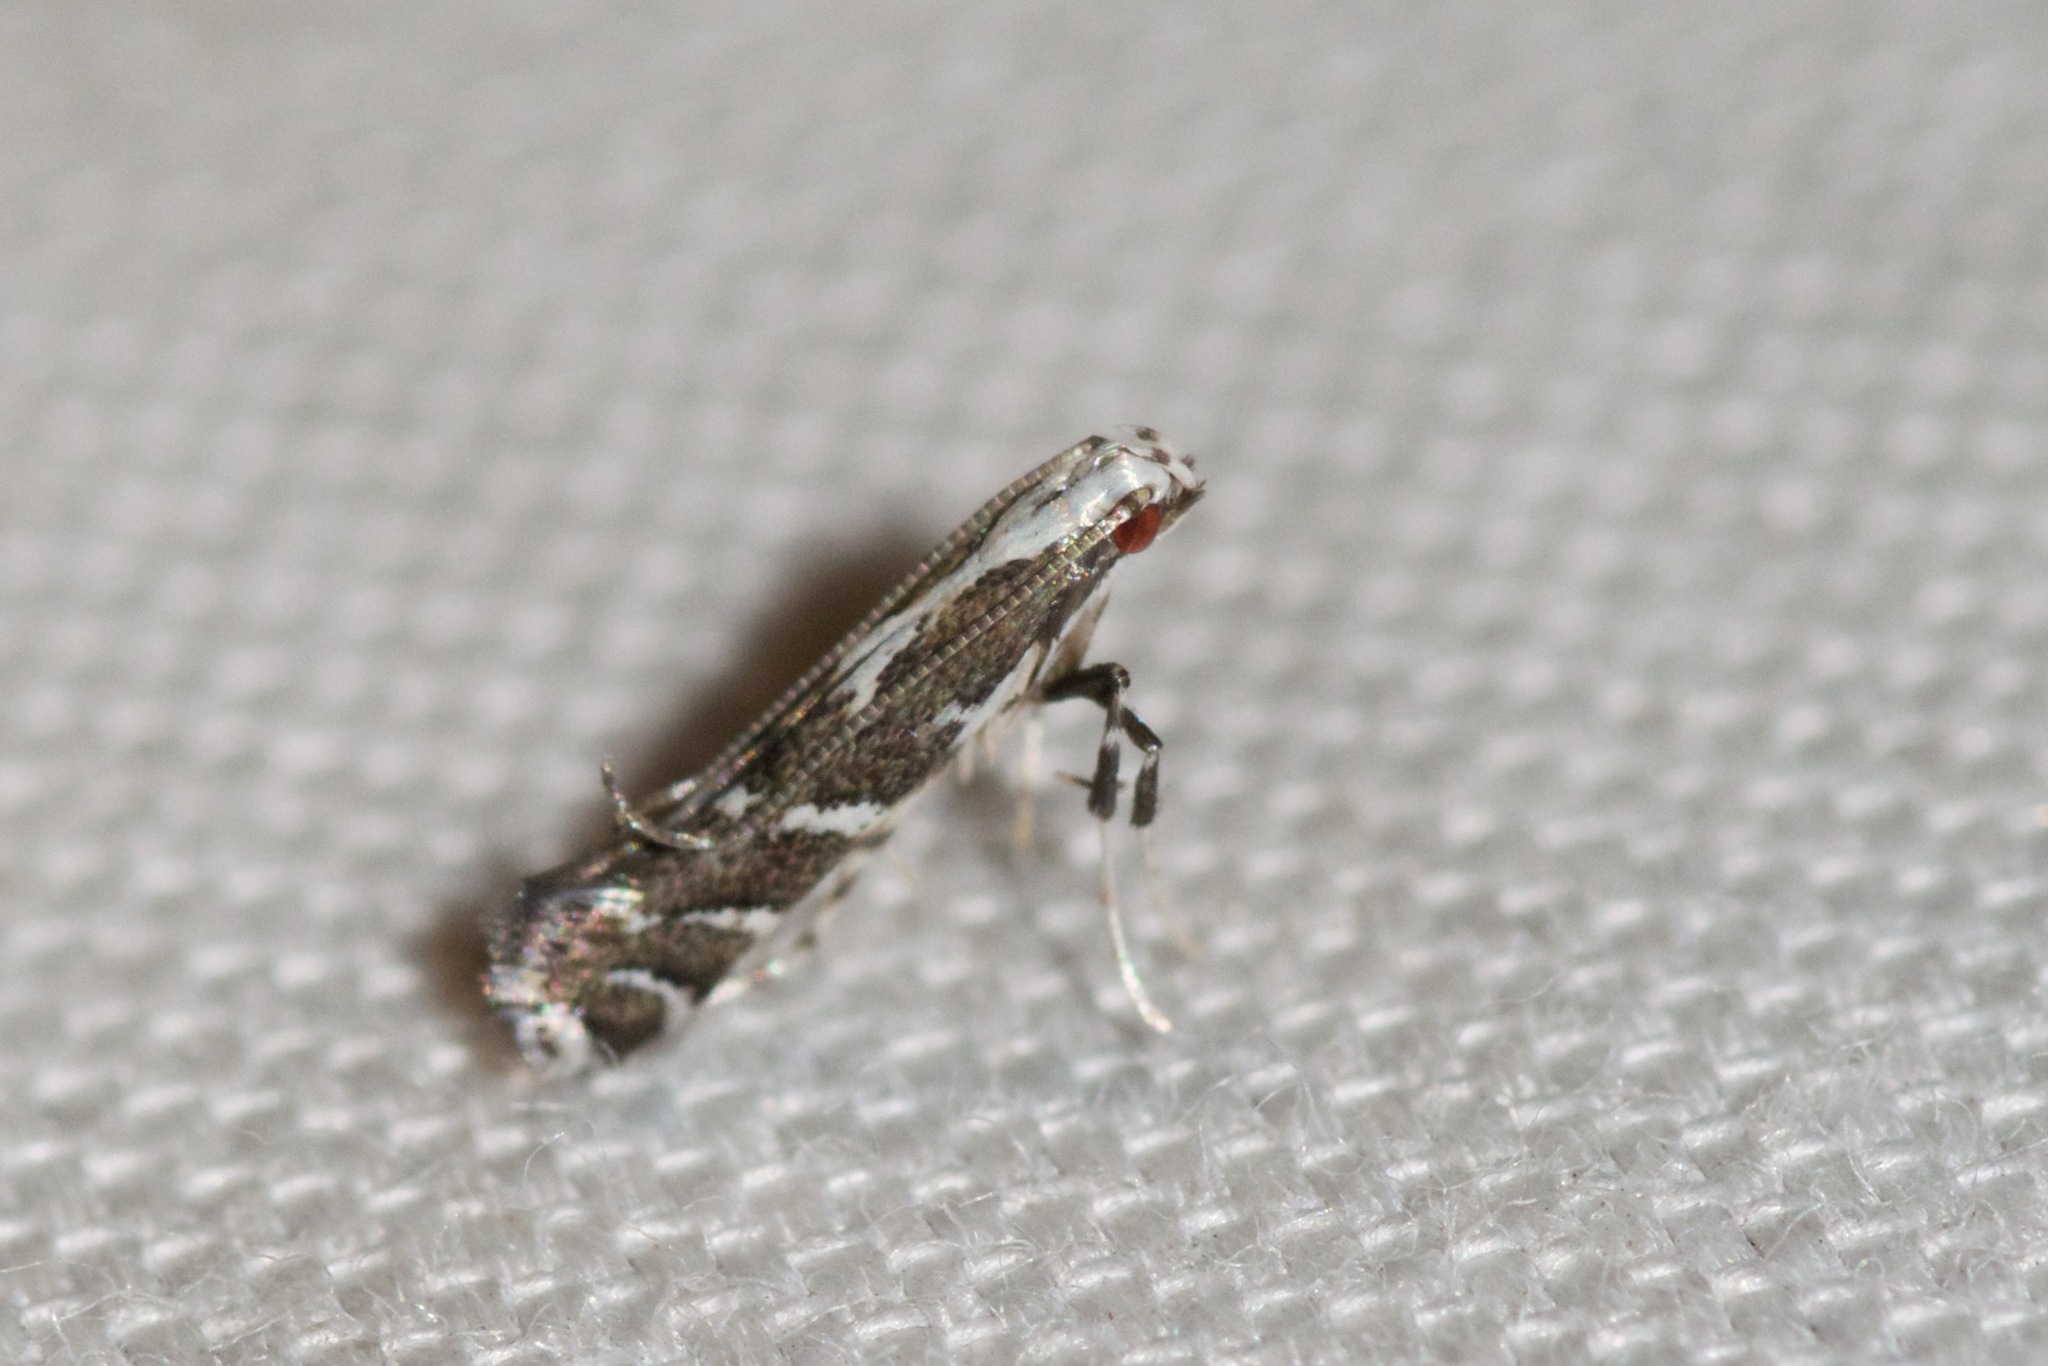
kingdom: Animalia
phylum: Arthropoda
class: Insecta
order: Lepidoptera
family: Gracillariidae
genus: Leucospilapteryx
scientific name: Leucospilapteryx venustella
